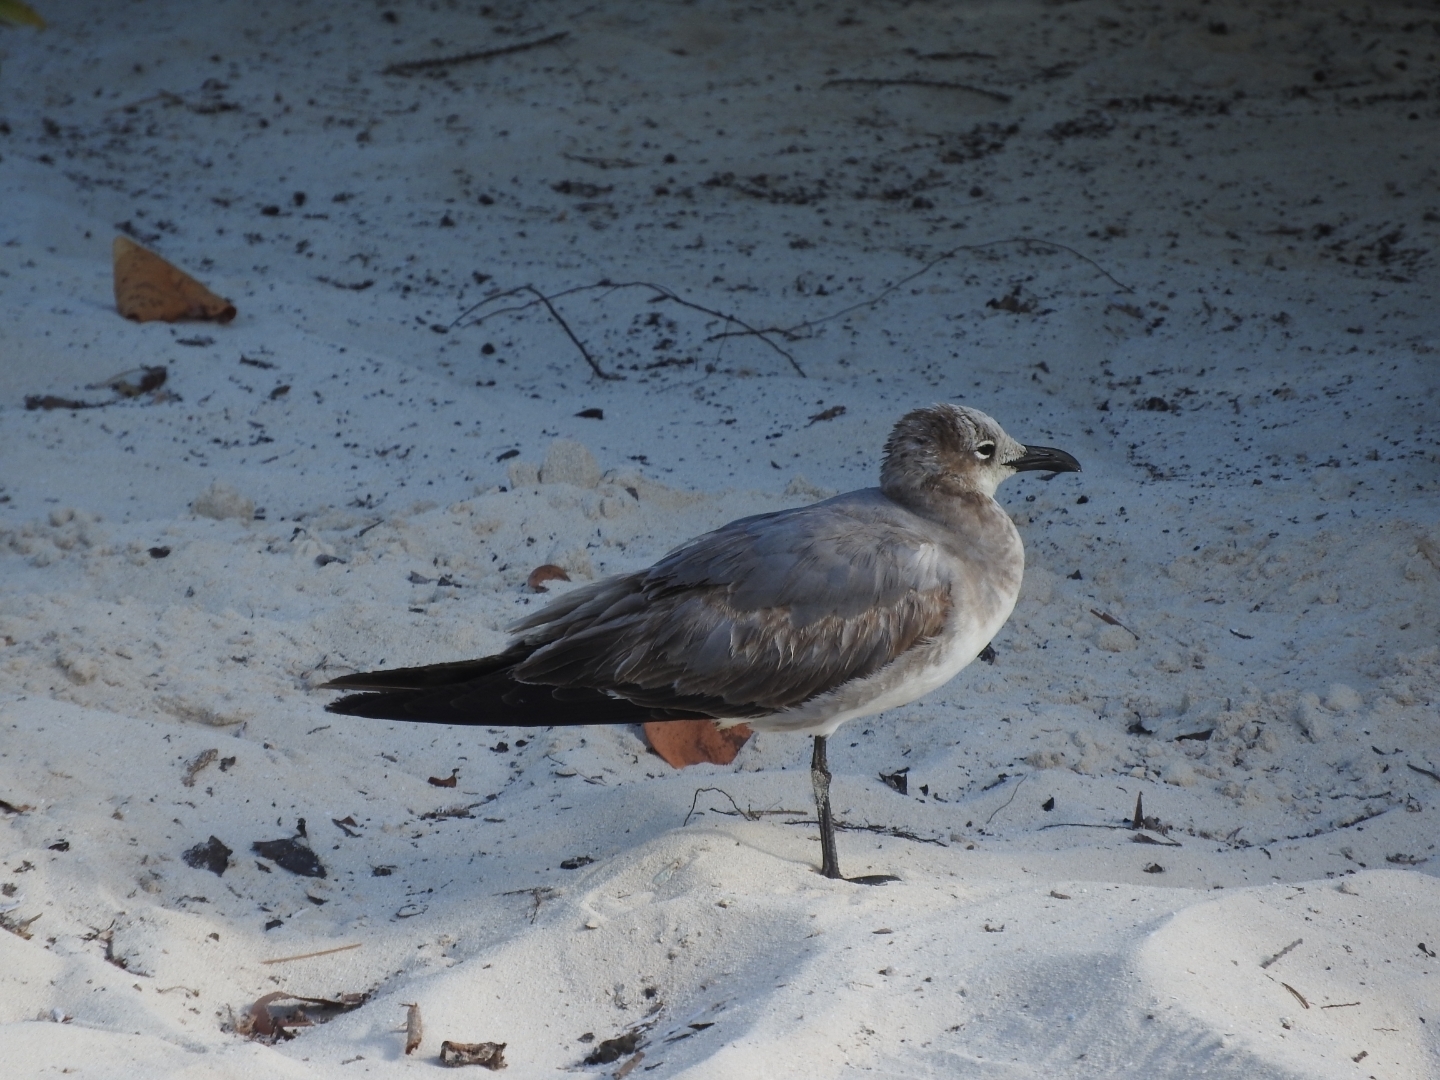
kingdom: Animalia
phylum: Chordata
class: Aves
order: Charadriiformes
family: Laridae
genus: Leucophaeus
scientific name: Leucophaeus atricilla
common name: Laughing gull
